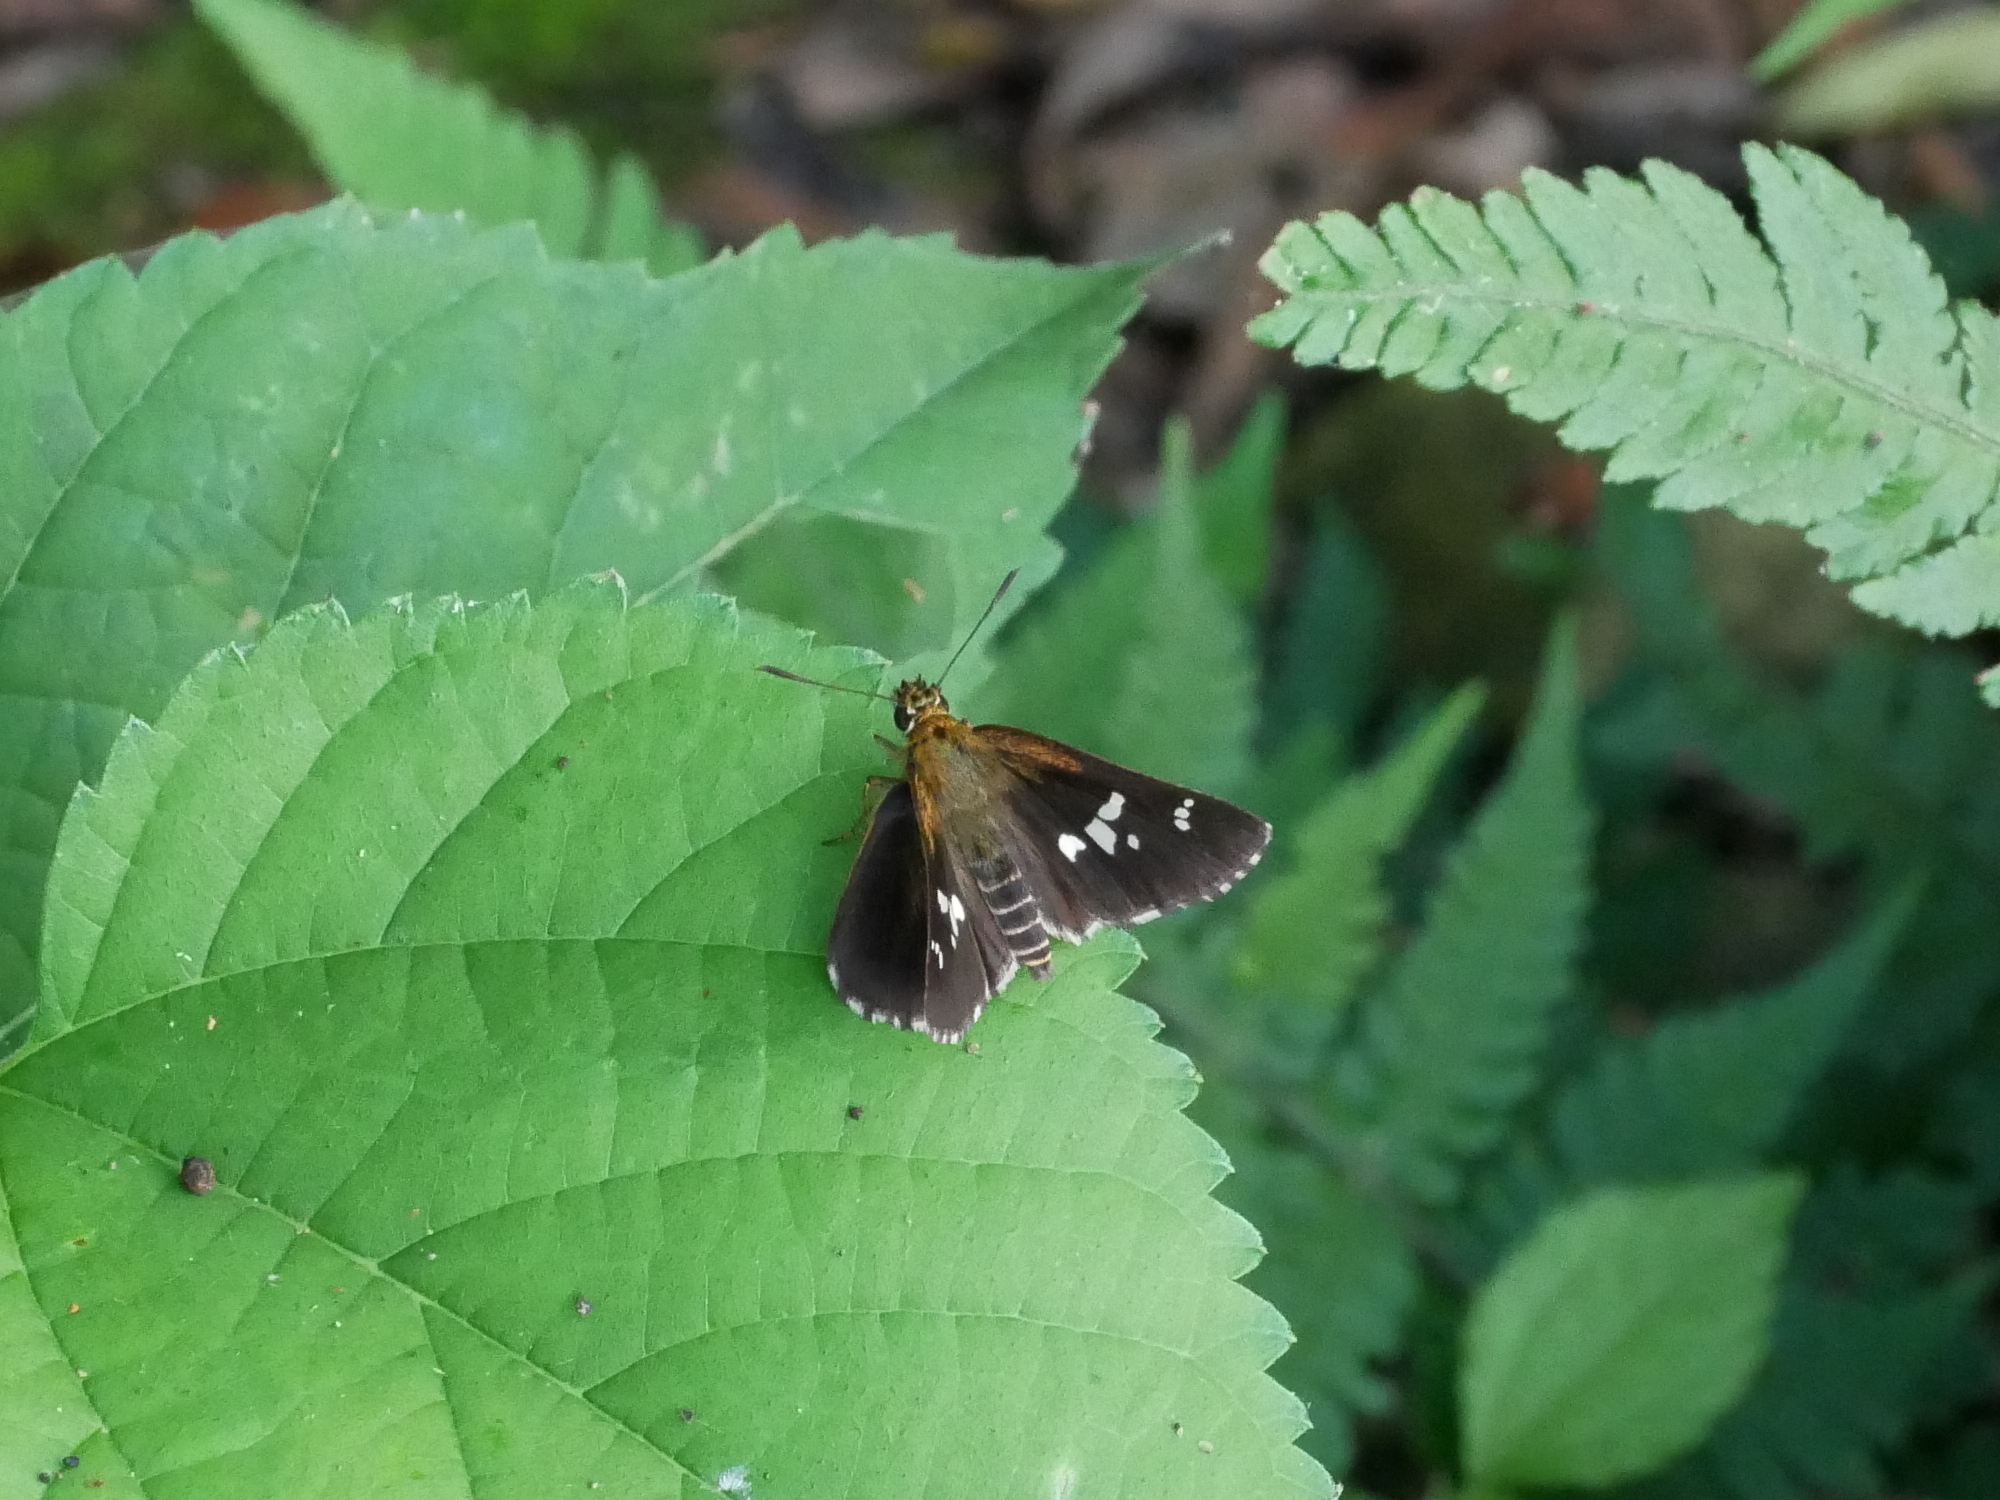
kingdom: Animalia
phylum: Arthropoda
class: Insecta
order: Lepidoptera
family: Hesperiidae
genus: Isoteinon
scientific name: Isoteinon lamprospilus
